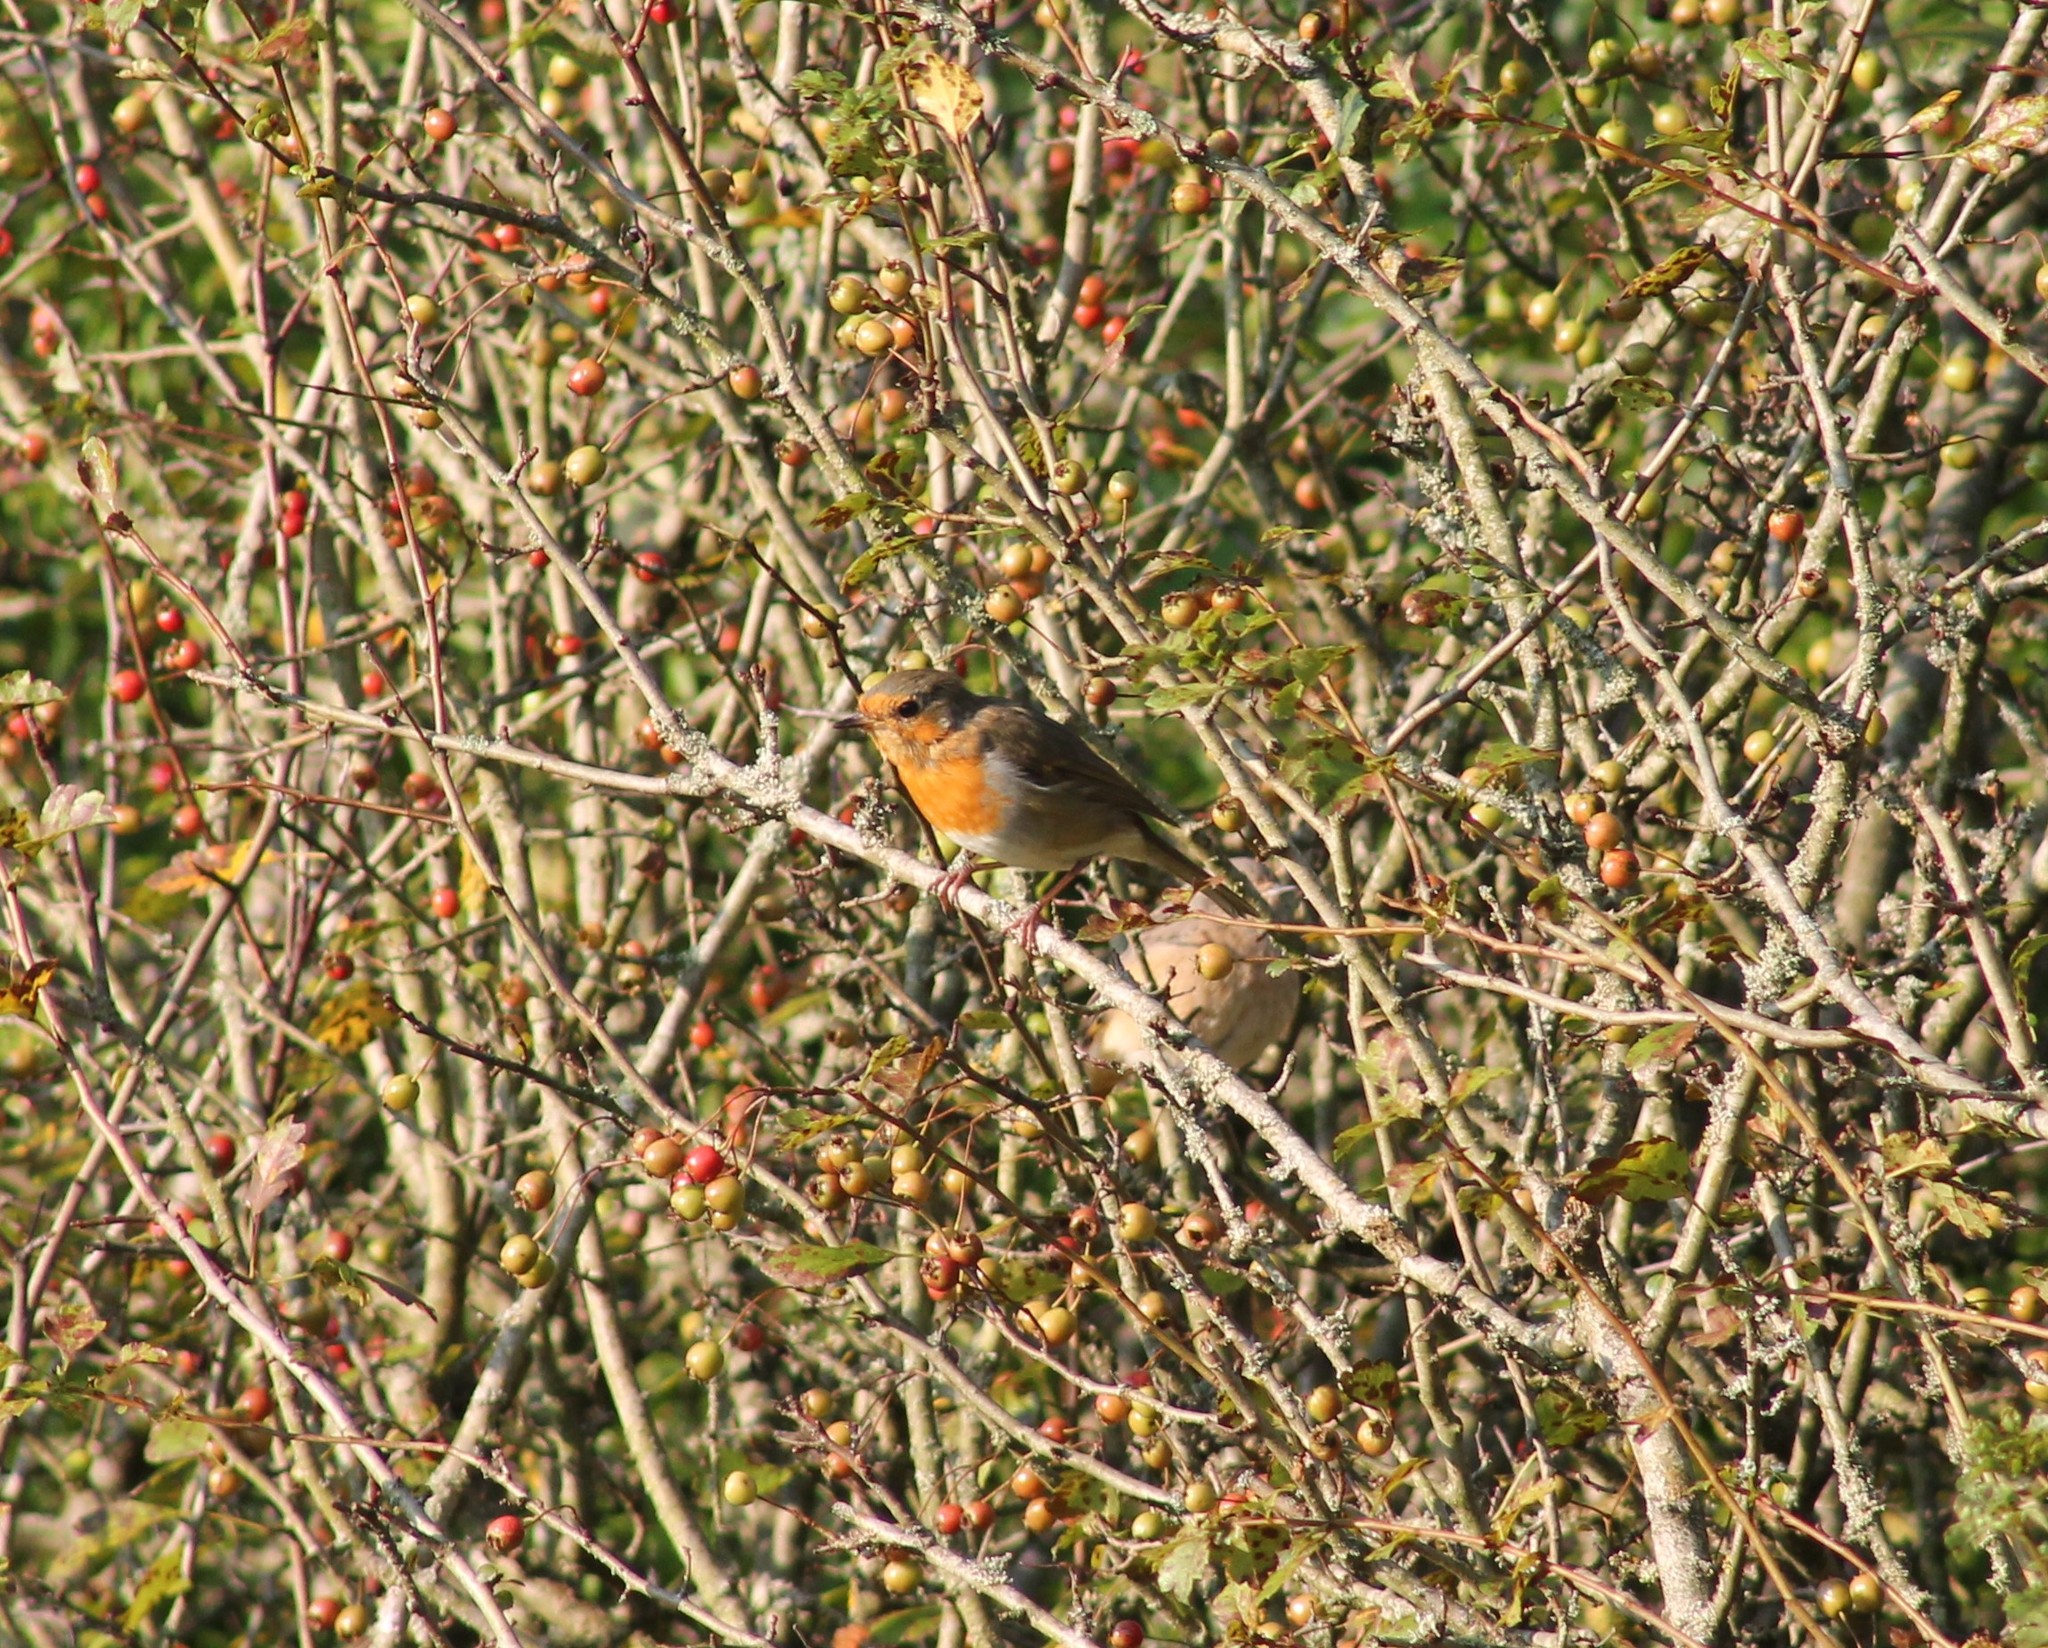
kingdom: Animalia
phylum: Chordata
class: Aves
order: Passeriformes
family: Muscicapidae
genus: Erithacus
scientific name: Erithacus rubecula
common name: European robin
